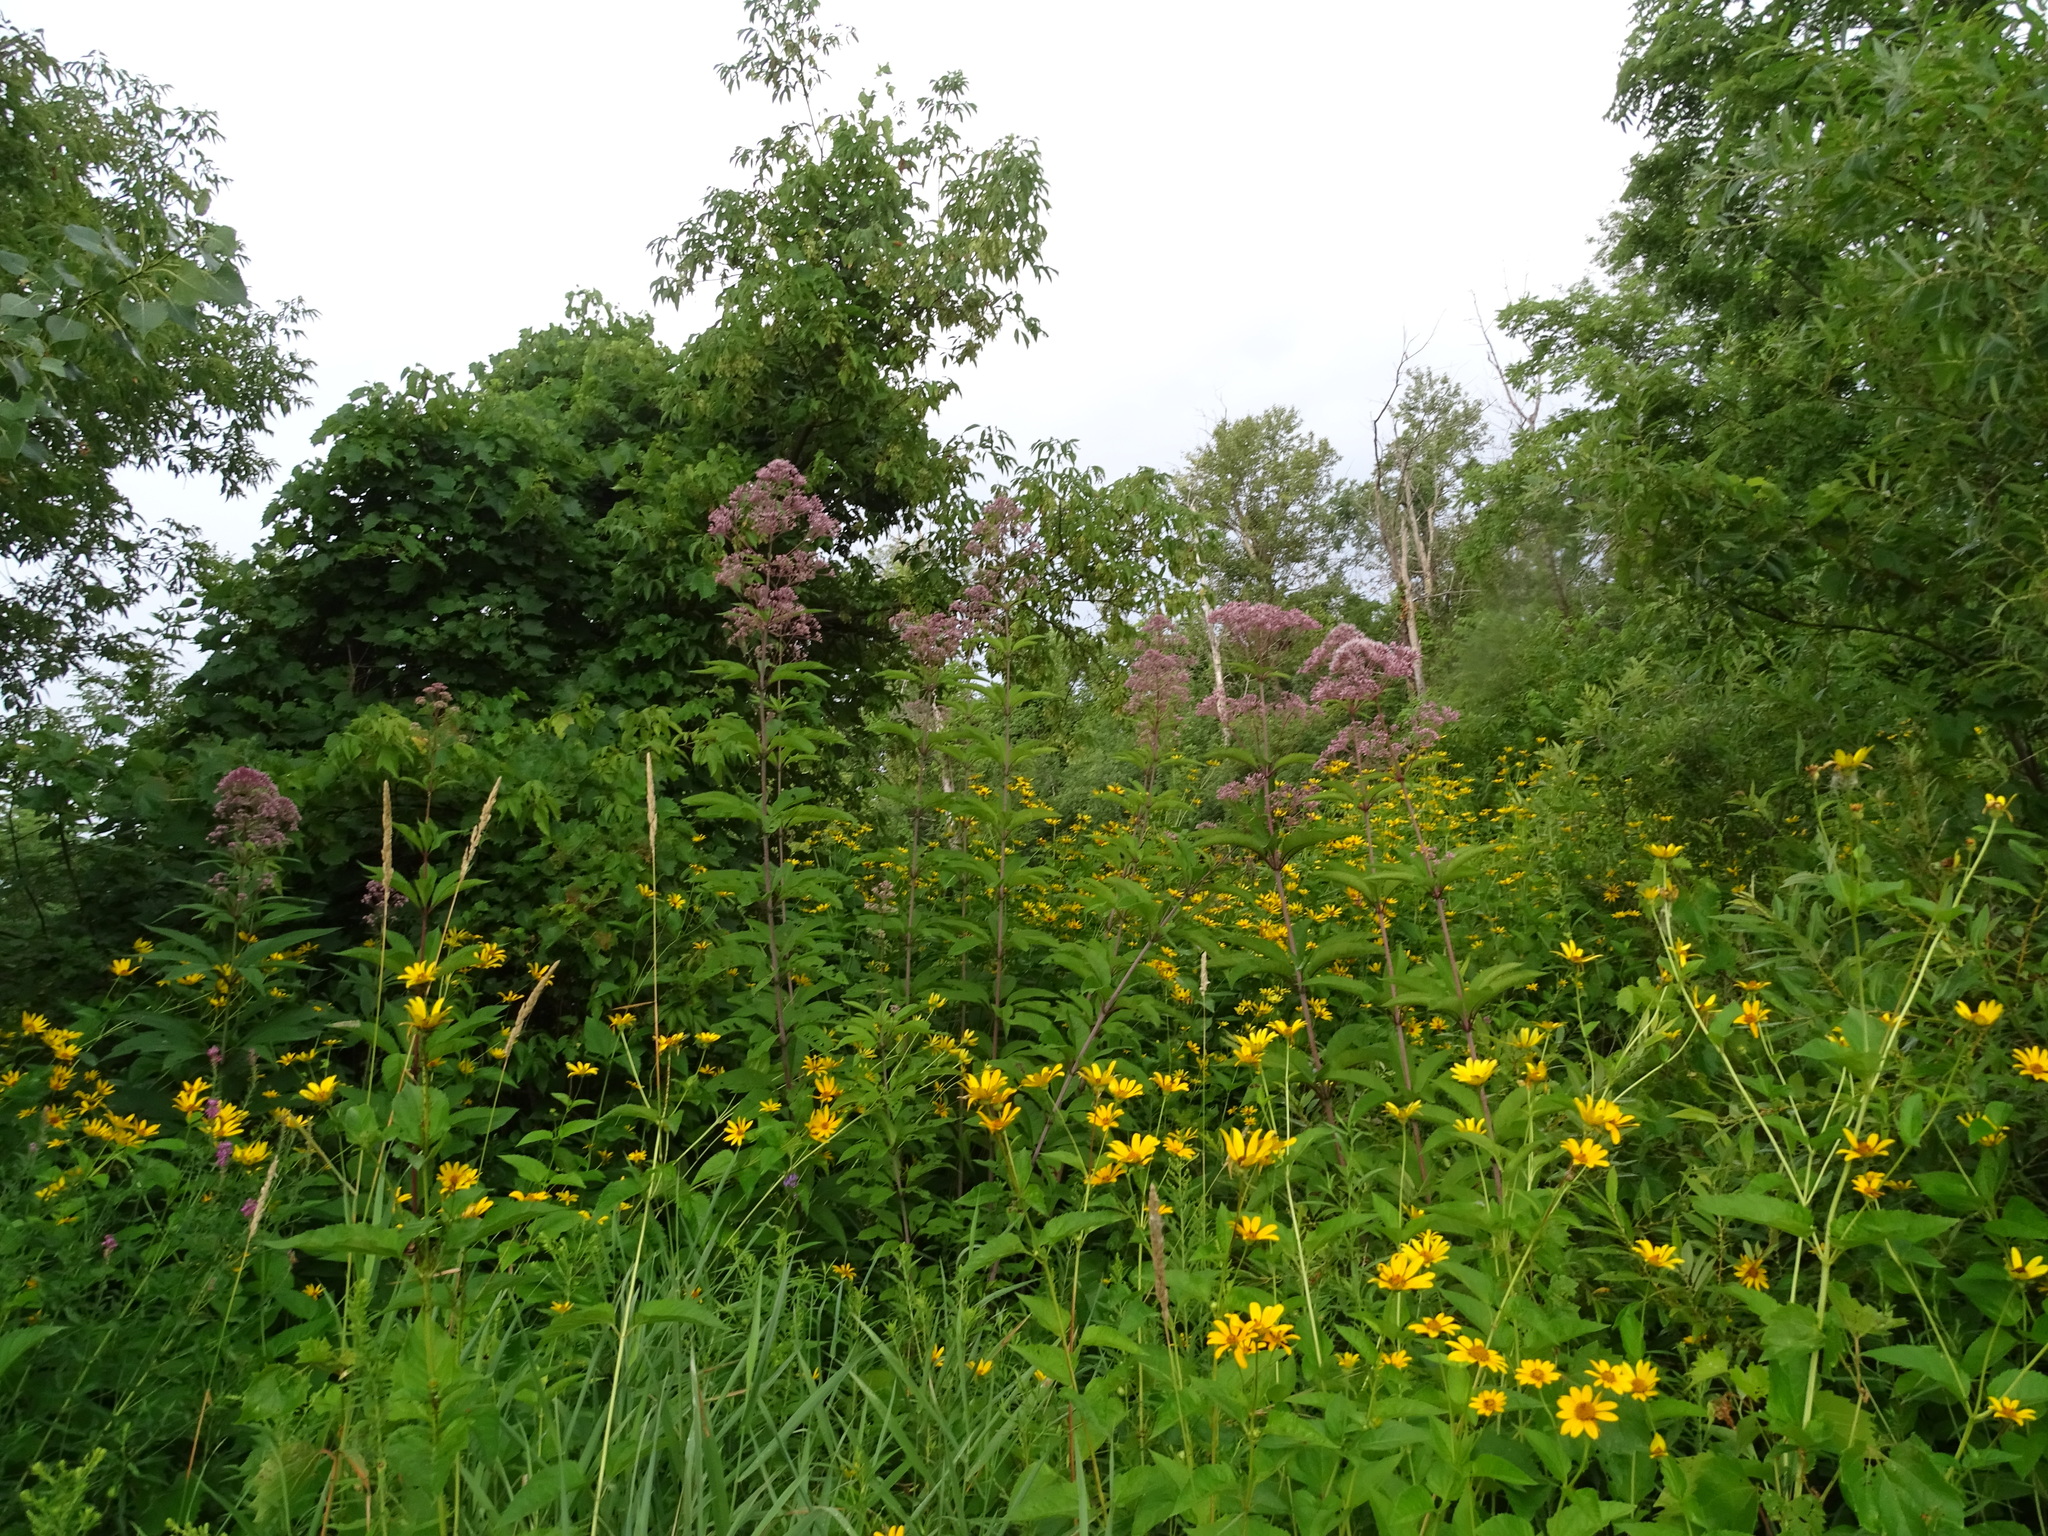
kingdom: Plantae
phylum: Tracheophyta
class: Magnoliopsida
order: Asterales
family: Asteraceae
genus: Eutrochium
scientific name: Eutrochium maculatum
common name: Spotted joe pye weed
